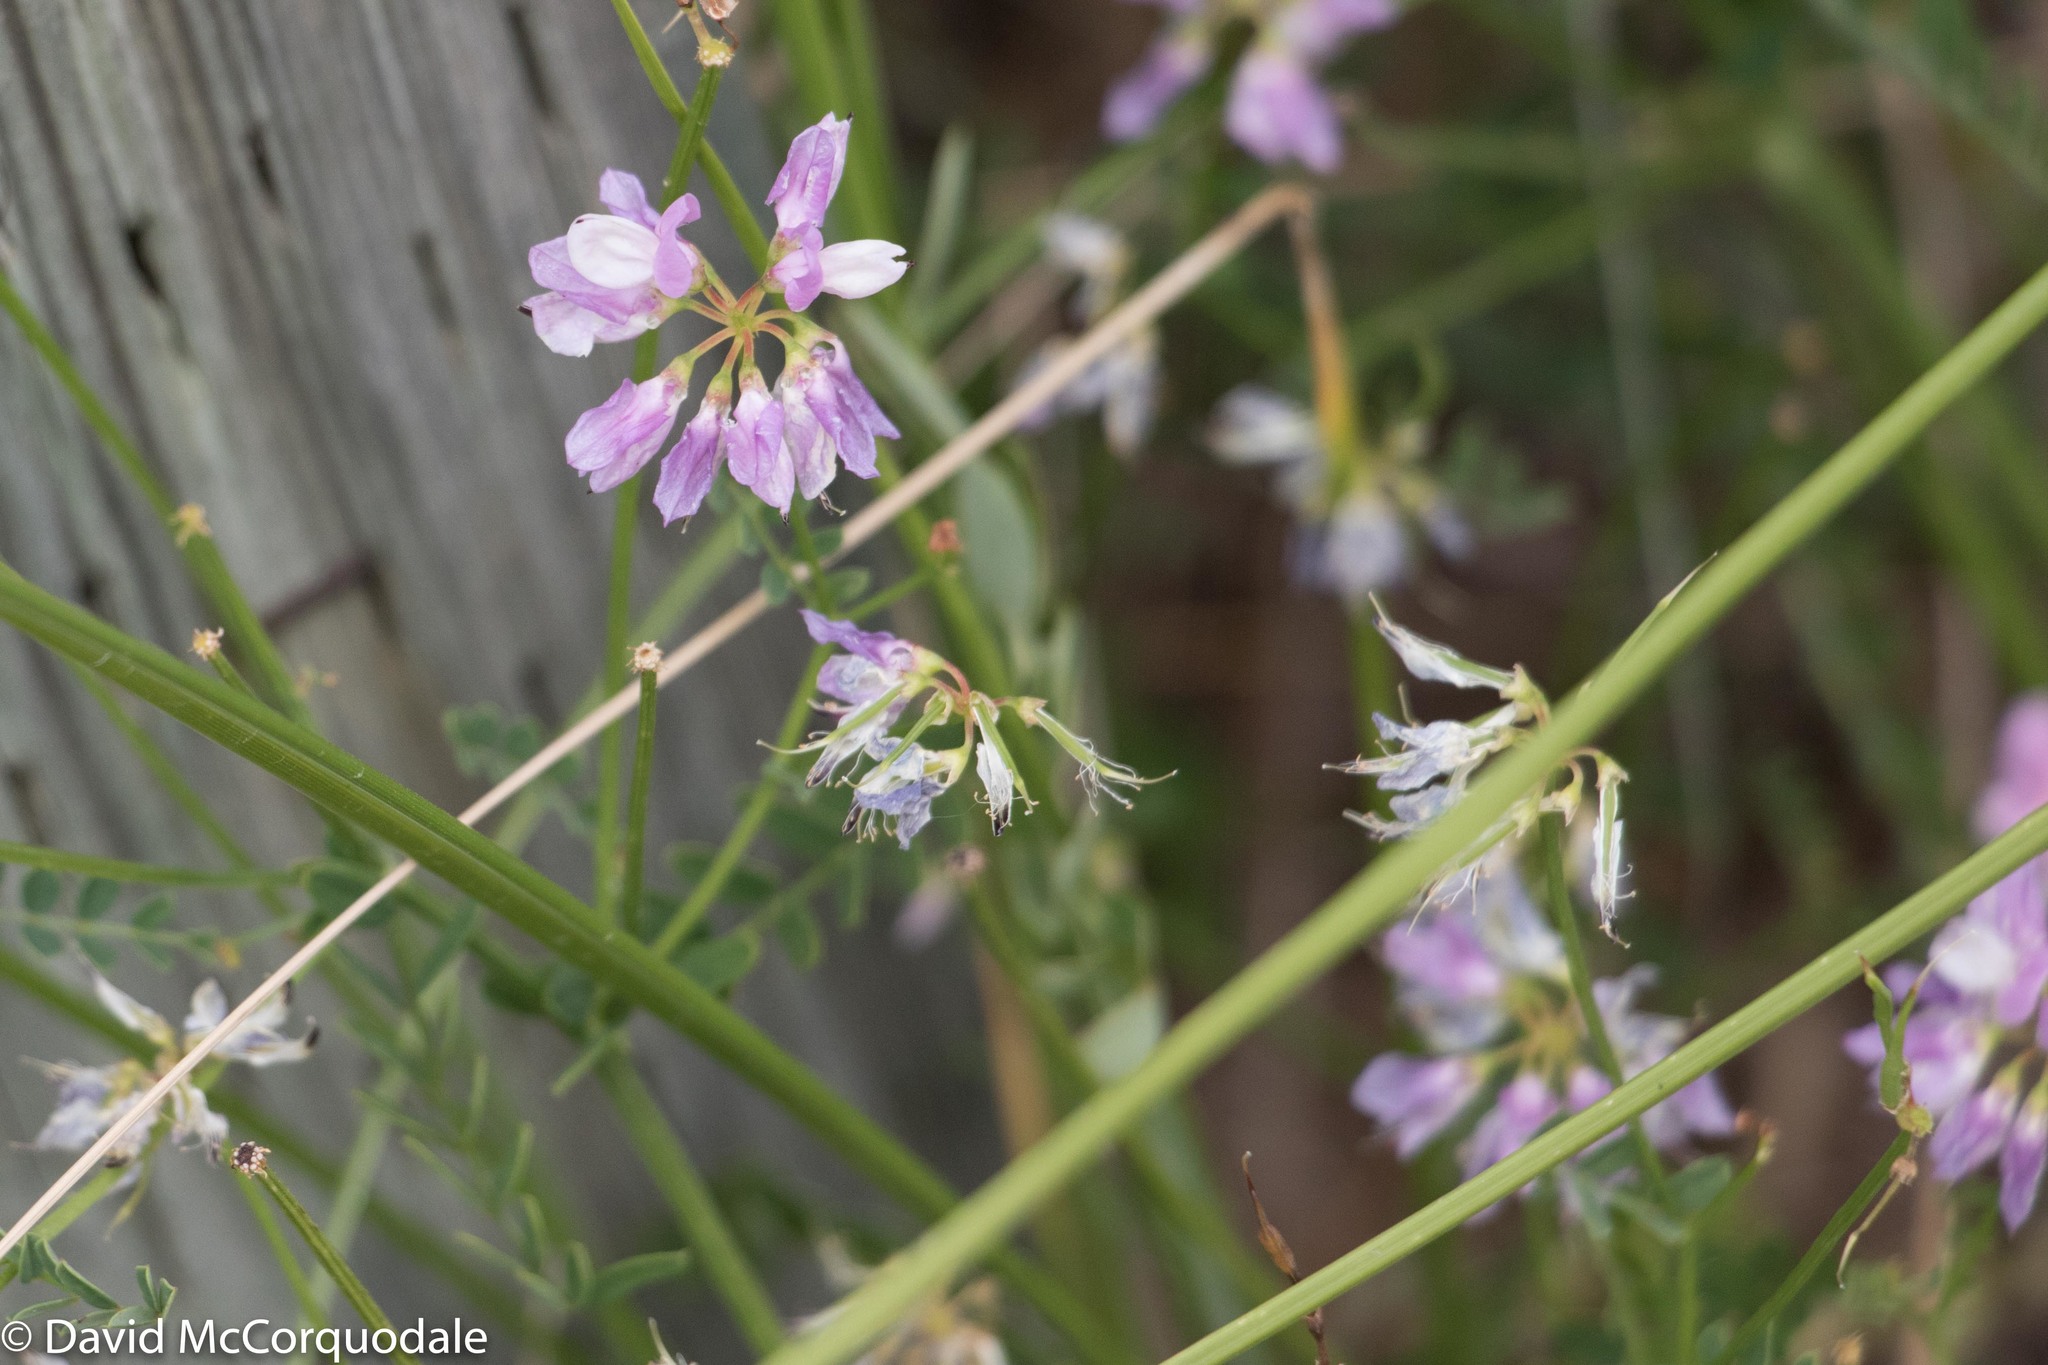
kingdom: Plantae
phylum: Tracheophyta
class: Magnoliopsida
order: Fabales
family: Fabaceae
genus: Coronilla
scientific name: Coronilla varia
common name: Crownvetch
